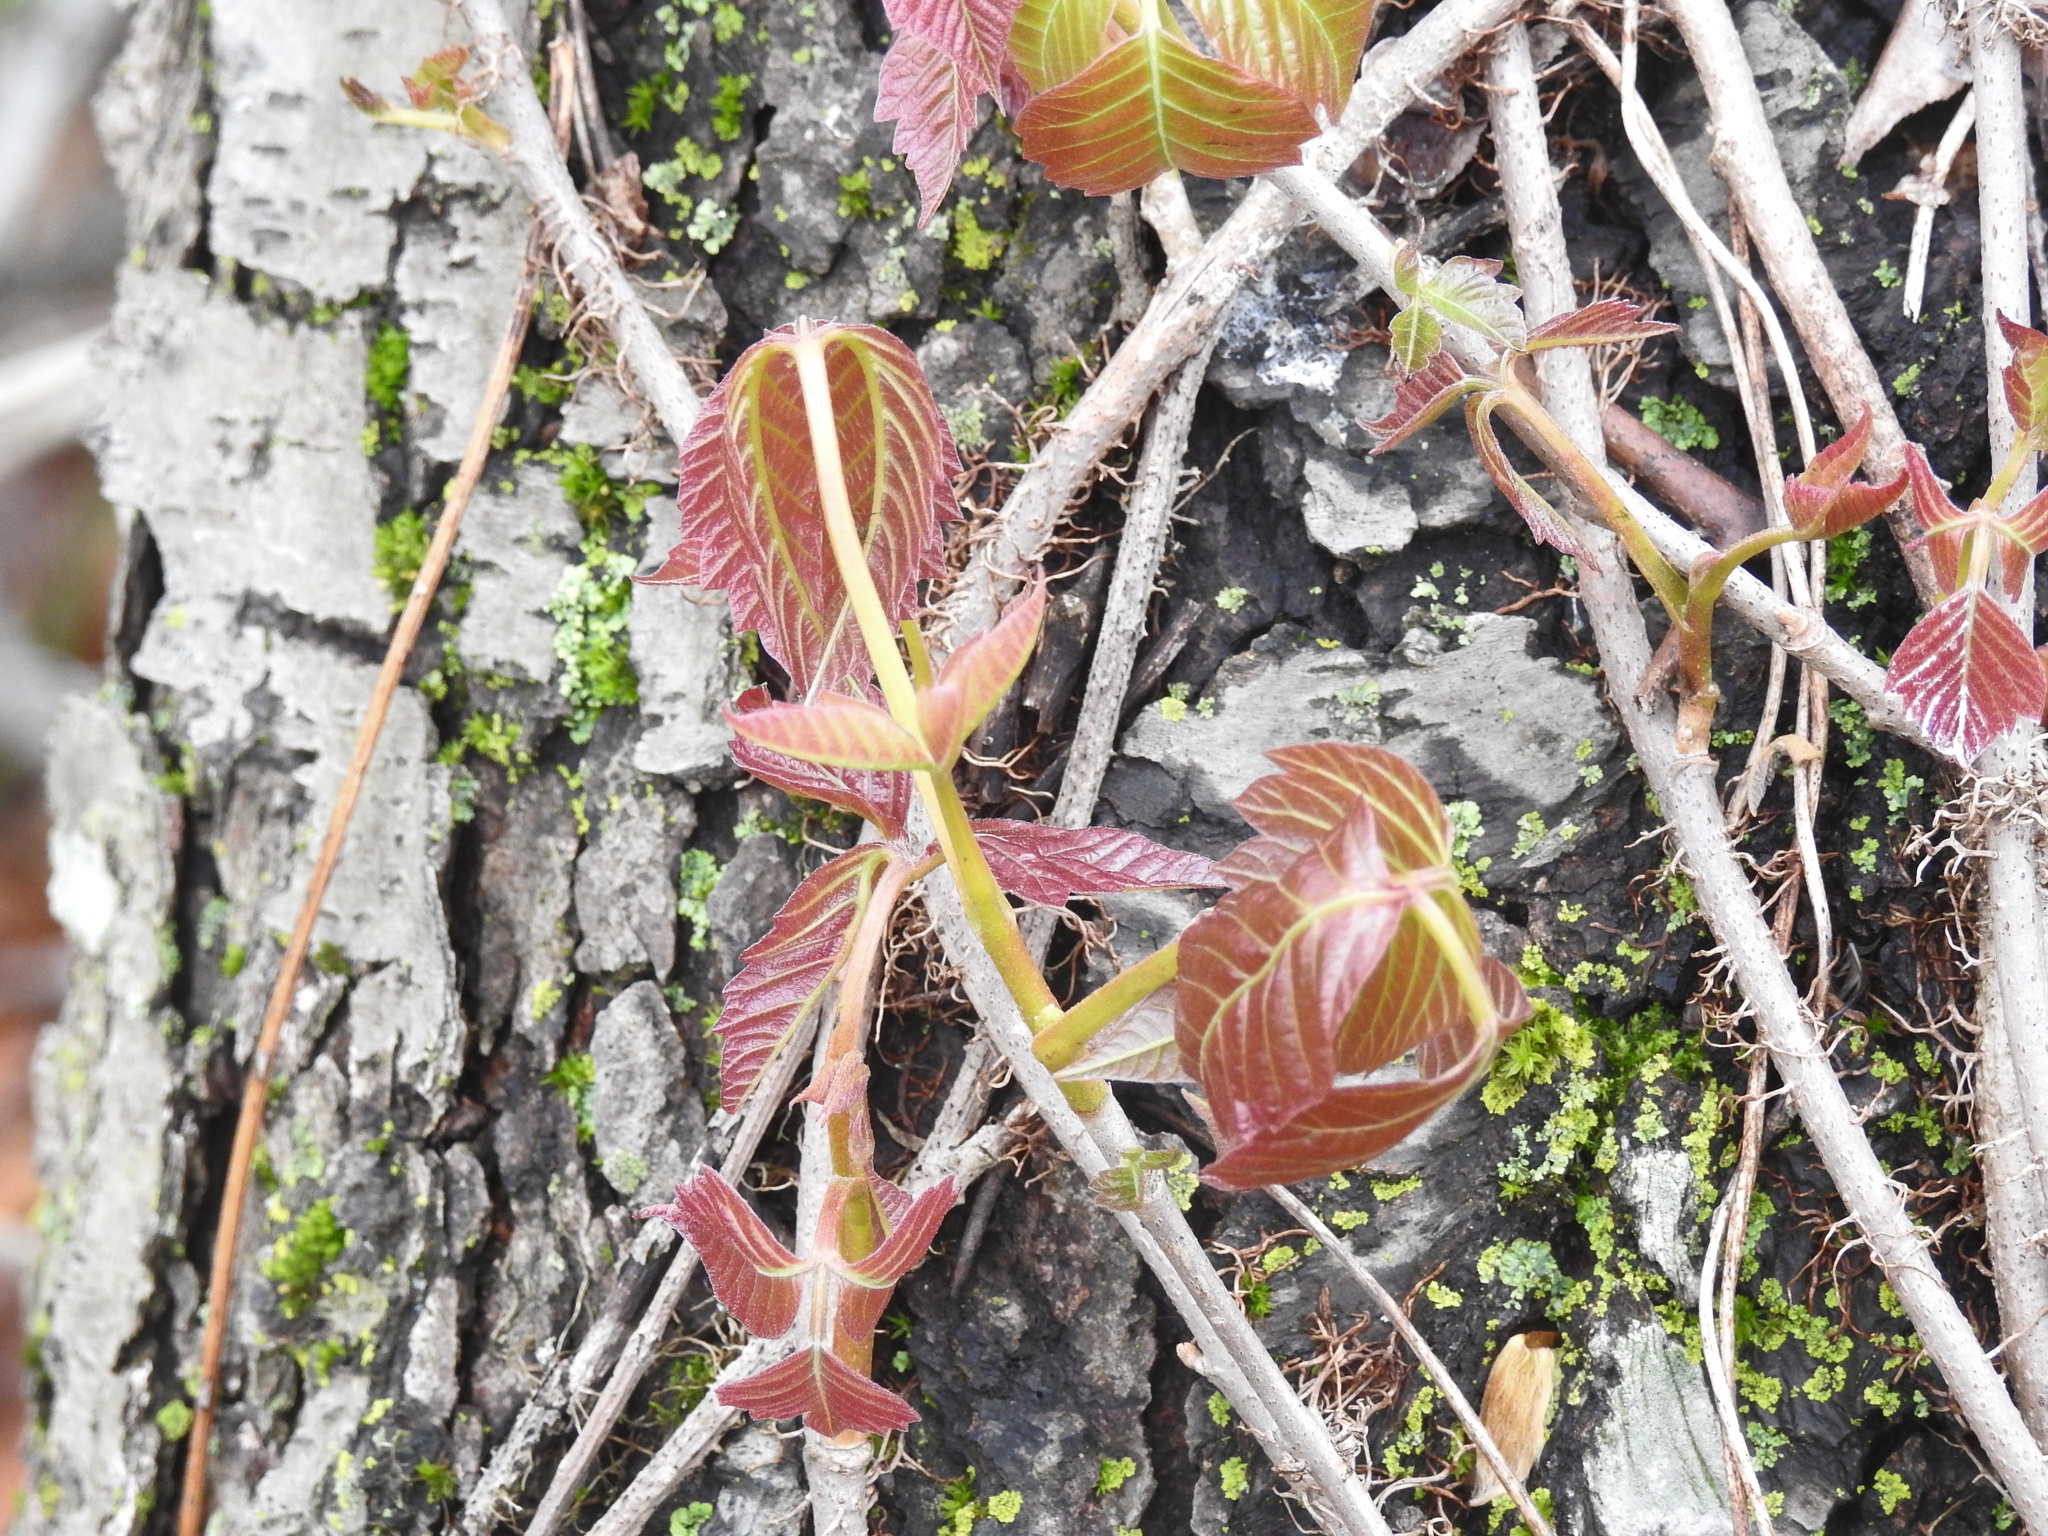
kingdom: Plantae
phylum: Tracheophyta
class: Magnoliopsida
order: Sapindales
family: Anacardiaceae
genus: Toxicodendron
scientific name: Toxicodendron radicans
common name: Poison ivy
